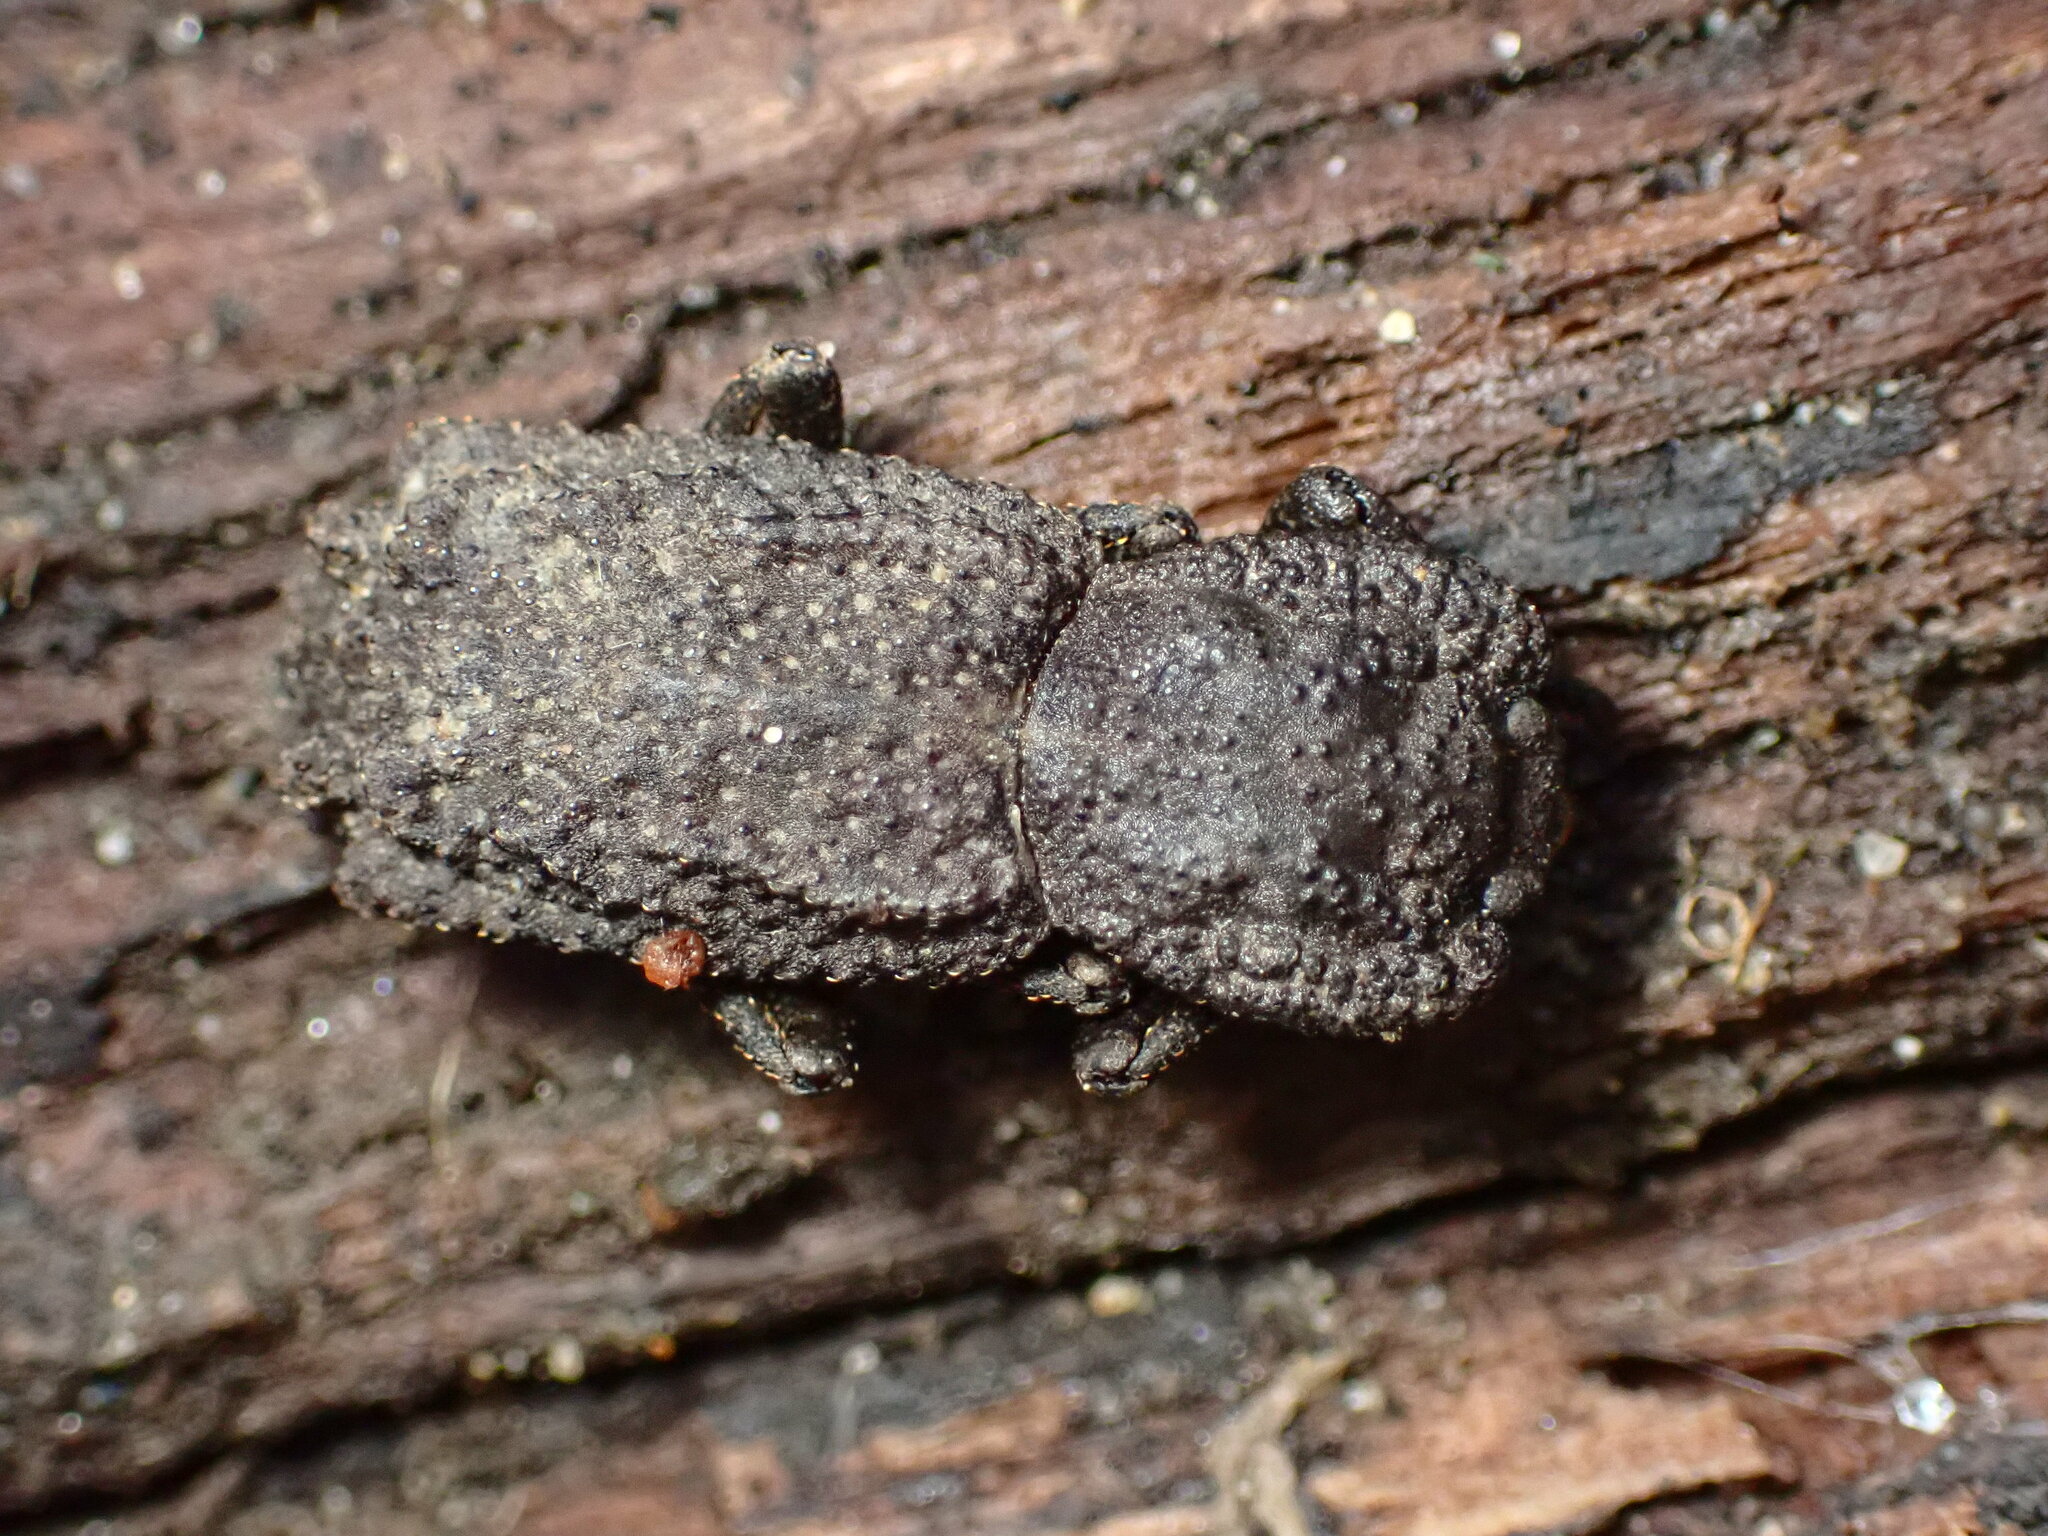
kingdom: Animalia
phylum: Arthropoda
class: Insecta
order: Coleoptera
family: Zopheridae
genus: Phloeodes
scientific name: Phloeodes plicatus
